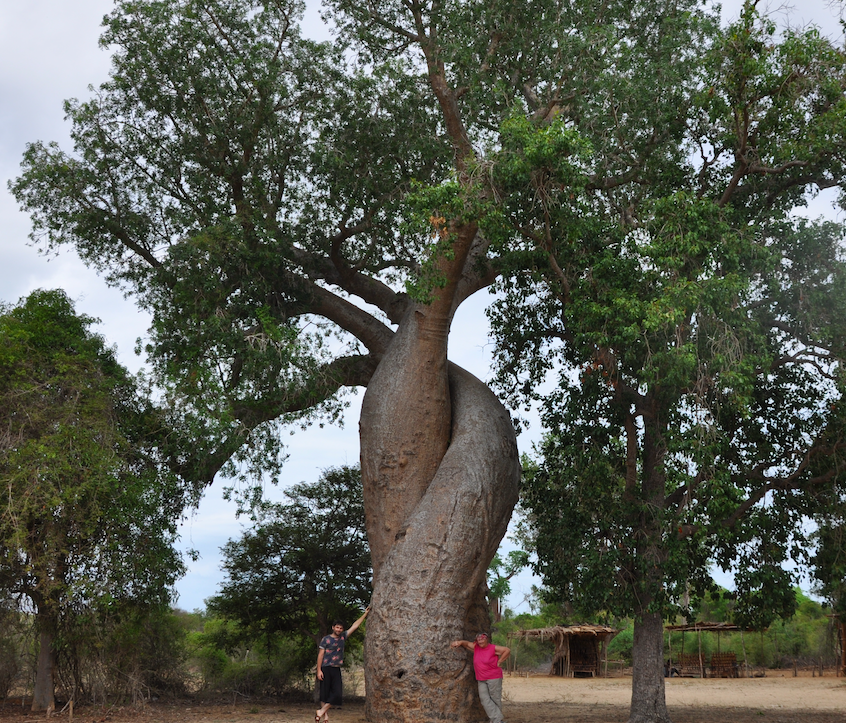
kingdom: Plantae
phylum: Tracheophyta
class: Magnoliopsida
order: Malvales
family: Malvaceae
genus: Adansonia
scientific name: Adansonia rubrostipa
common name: Fony baobab
